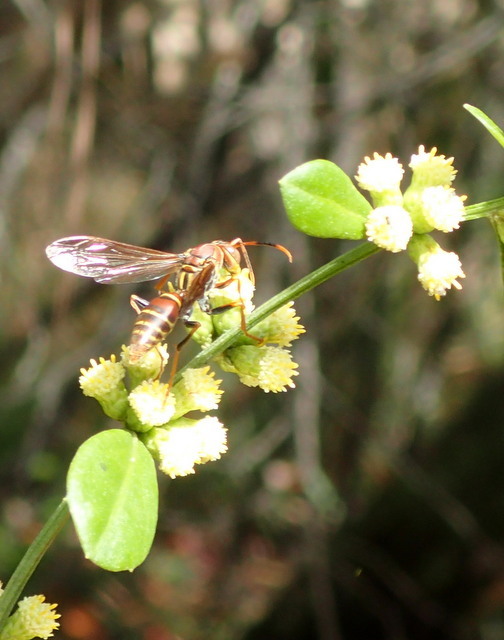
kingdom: Animalia
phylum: Arthropoda
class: Insecta
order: Hymenoptera
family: Eumenidae
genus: Polistes
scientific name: Polistes bahamensis
